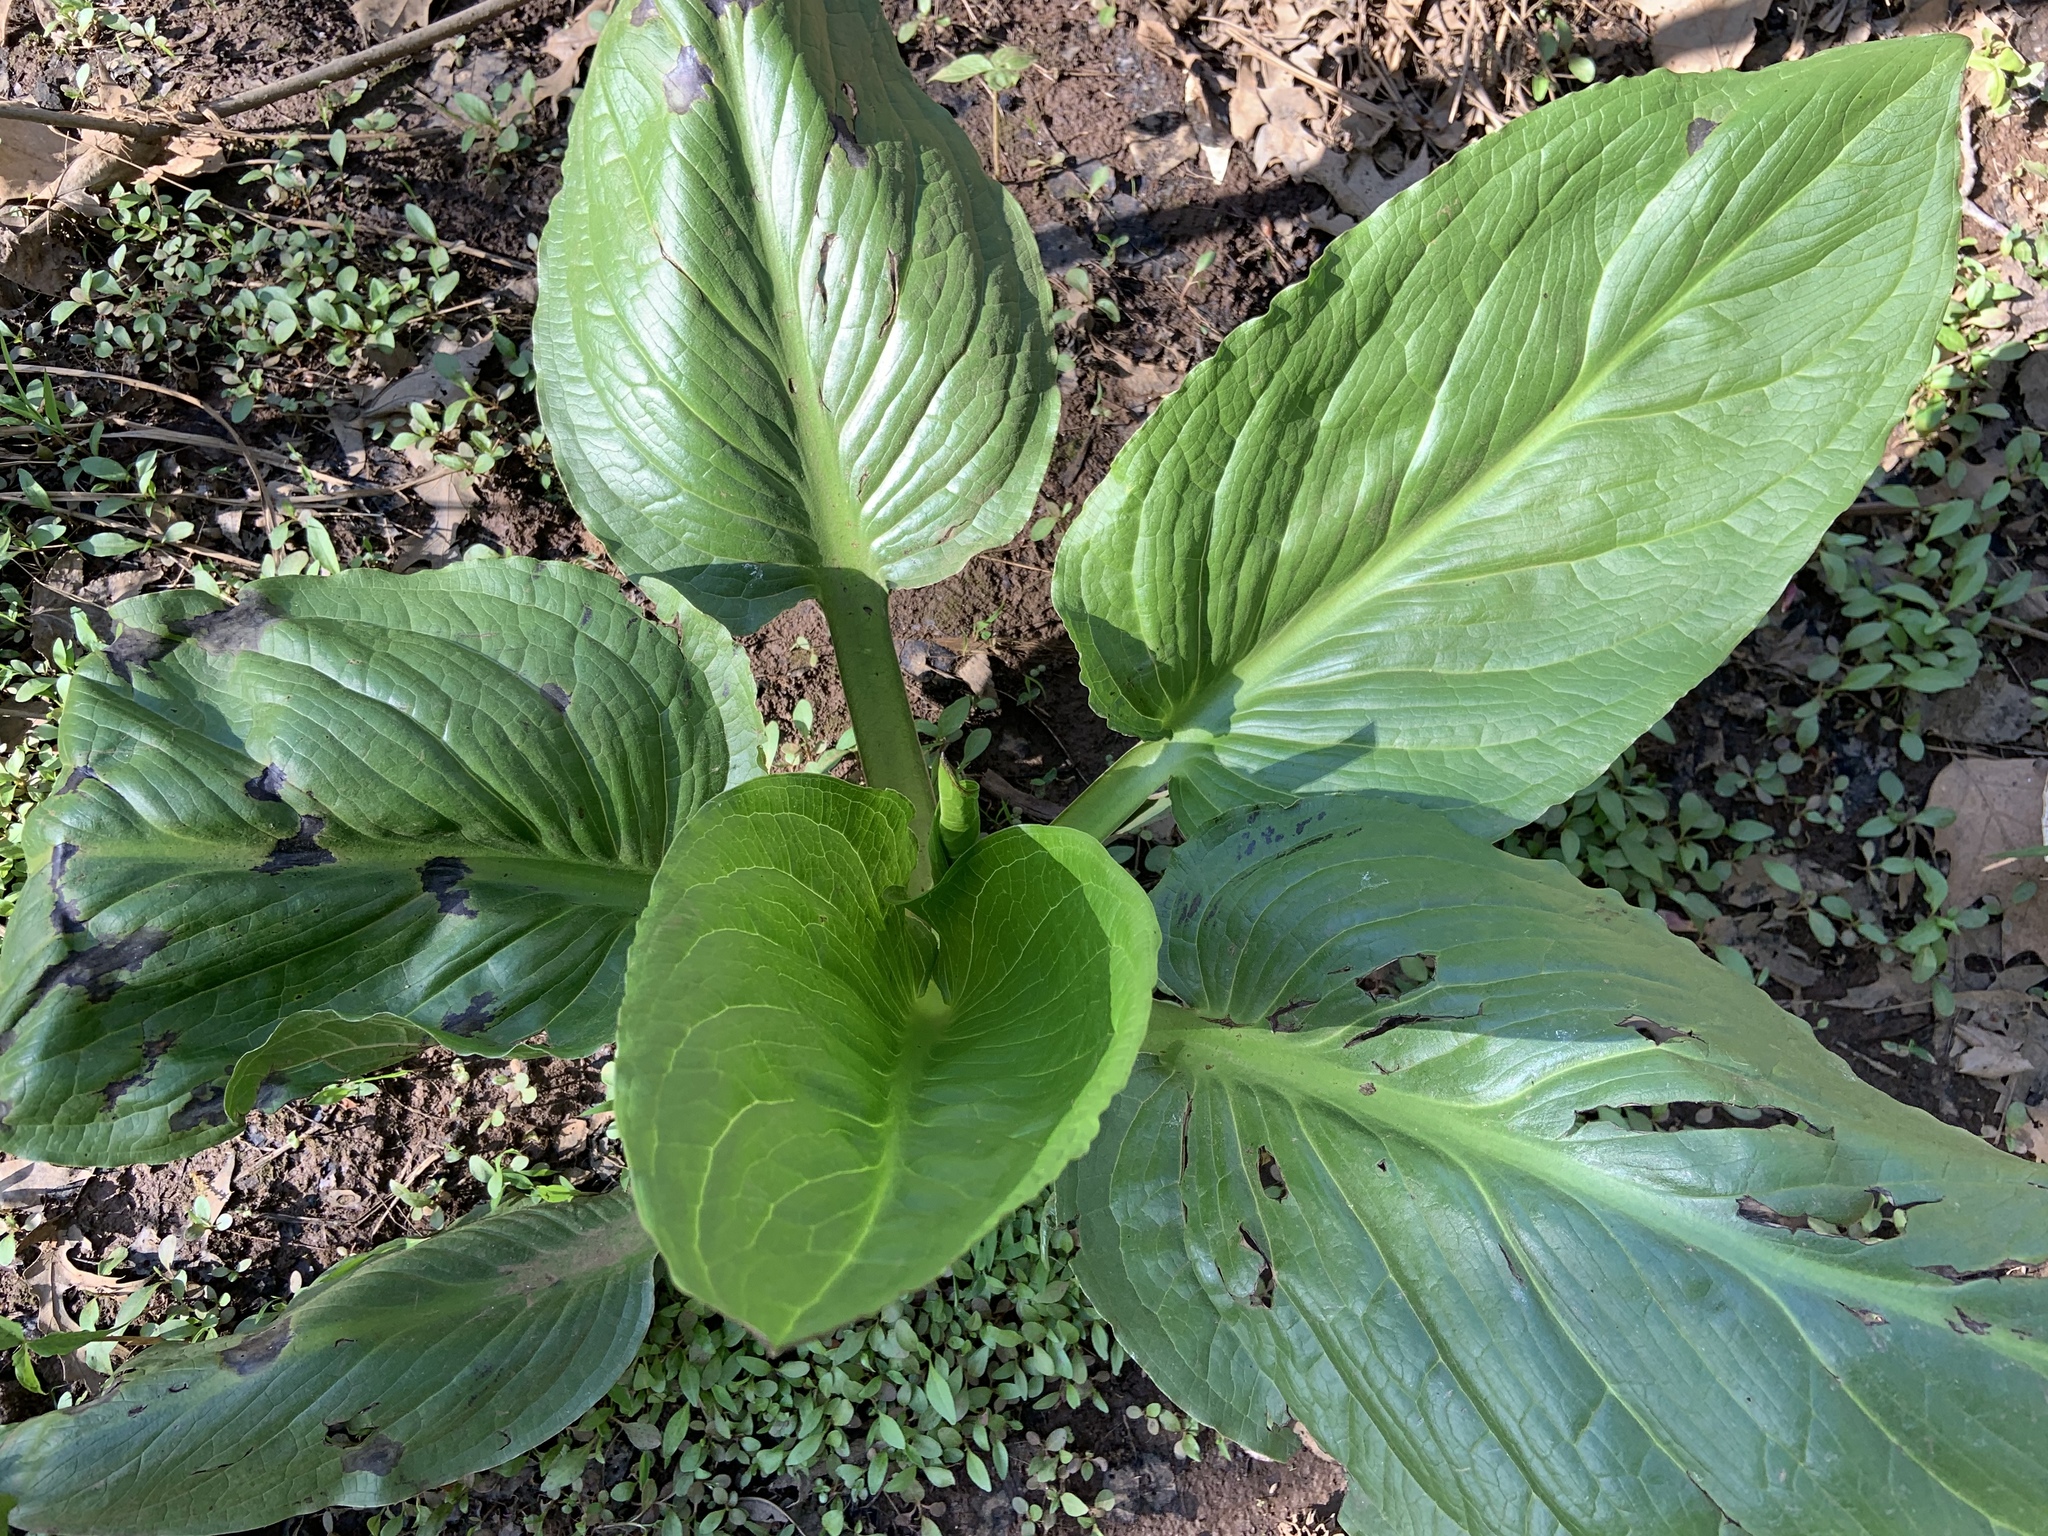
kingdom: Plantae
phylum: Tracheophyta
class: Liliopsida
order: Alismatales
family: Araceae
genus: Symplocarpus
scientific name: Symplocarpus foetidus
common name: Eastern skunk cabbage
